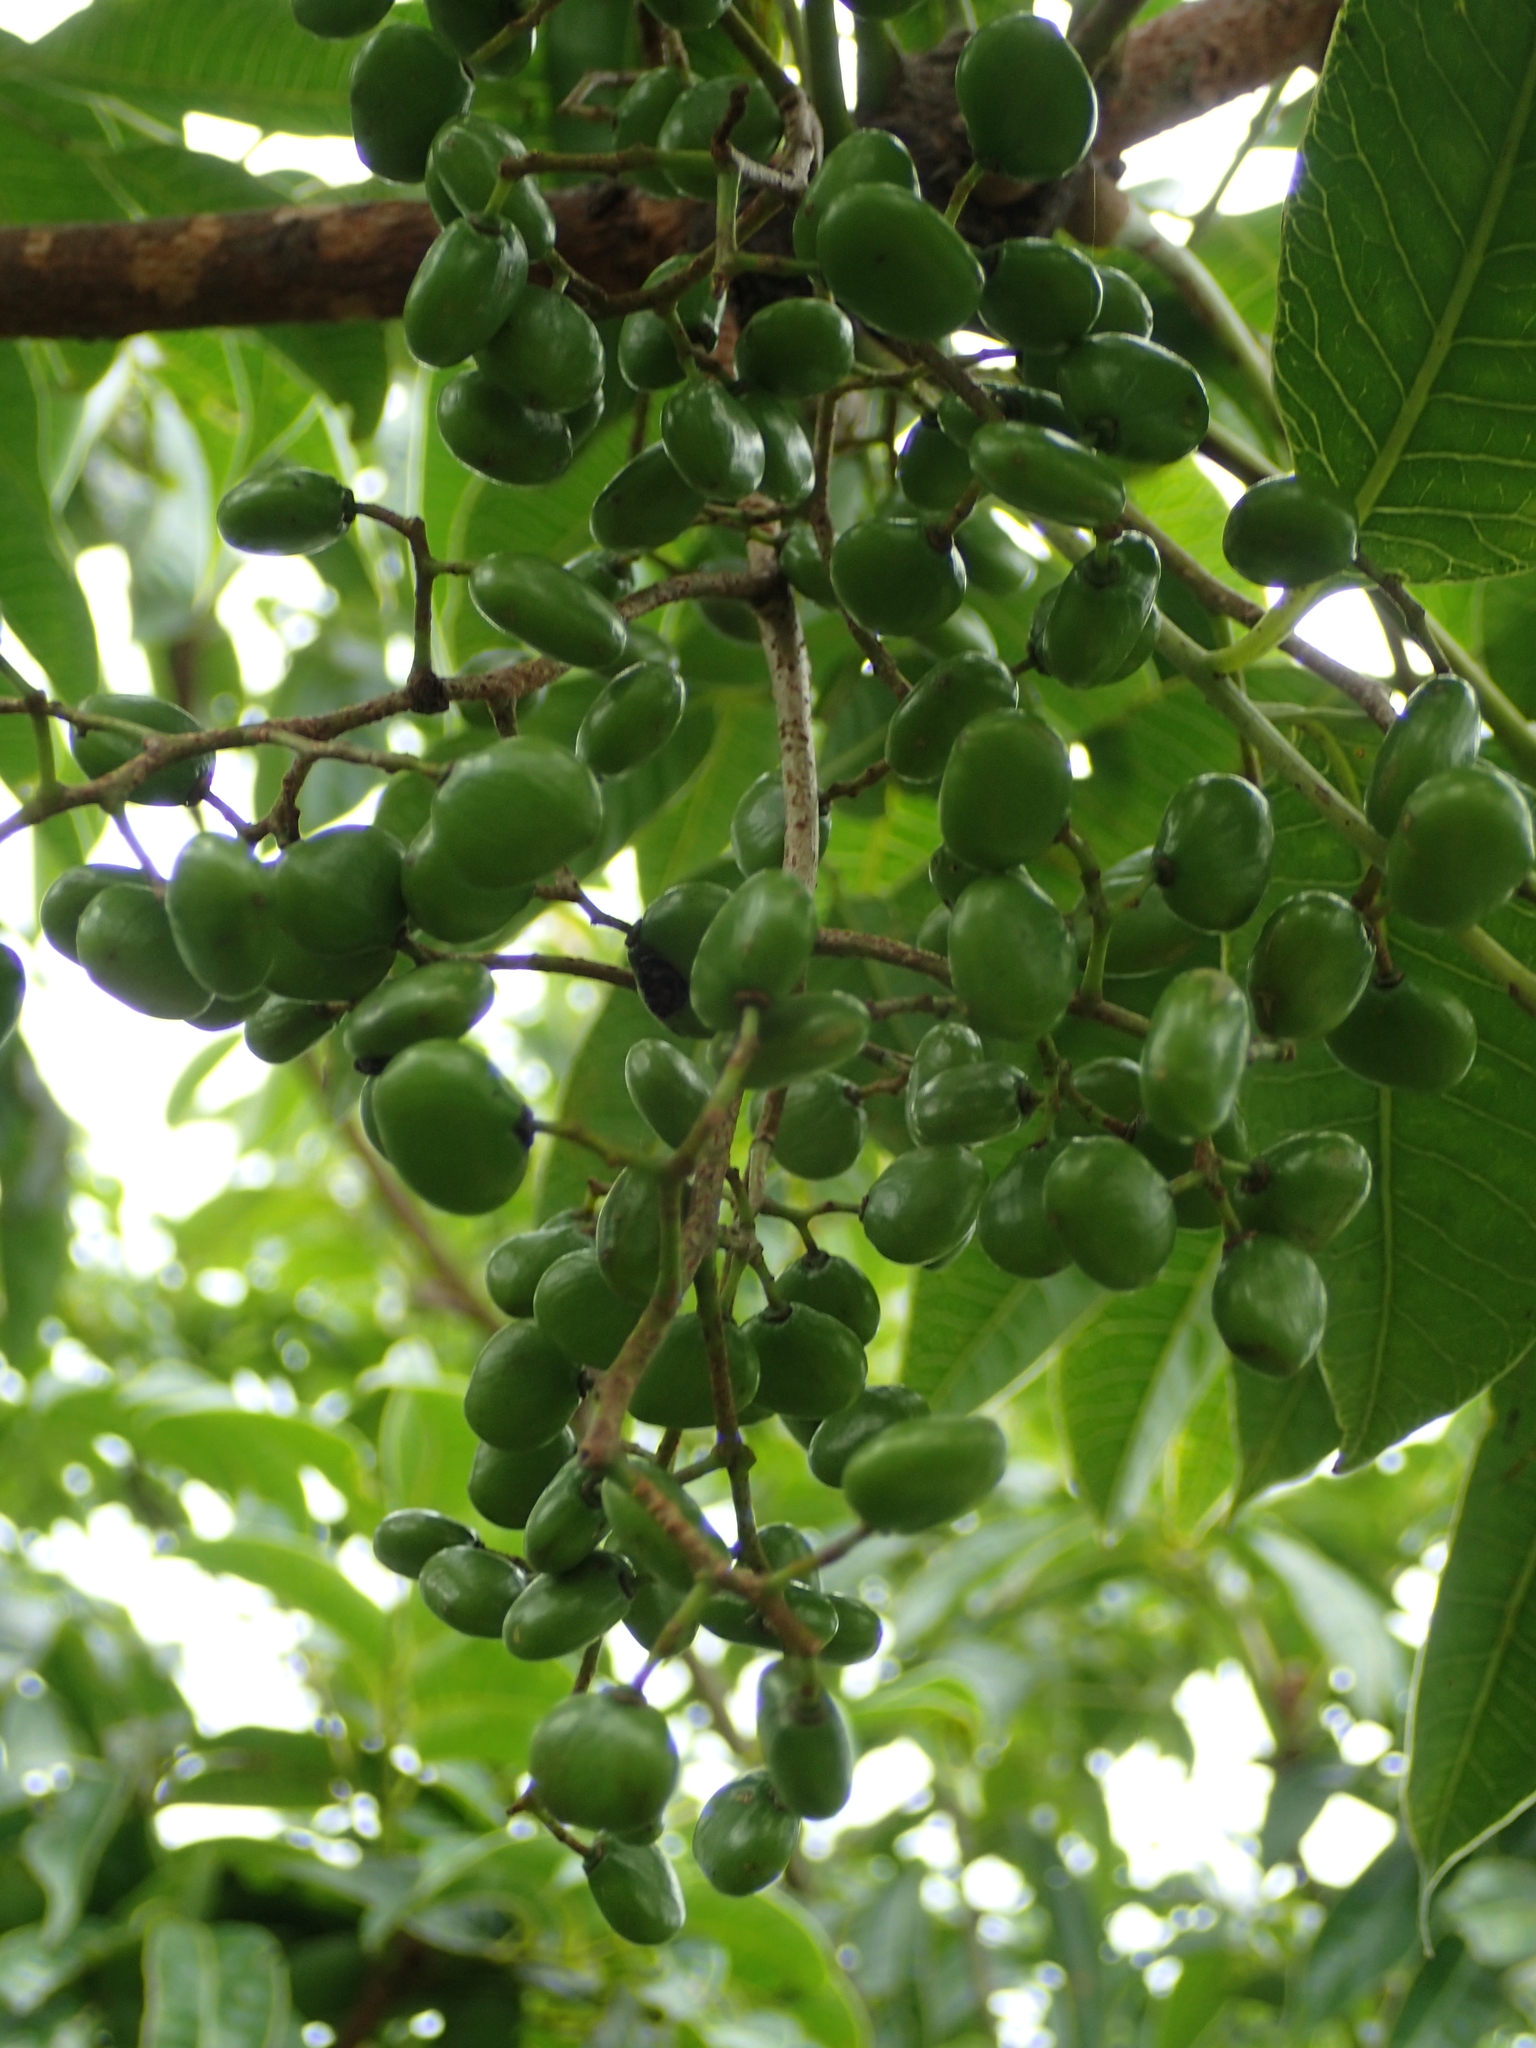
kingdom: Plantae
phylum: Tracheophyta
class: Magnoliopsida
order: Sapindales
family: Rutaceae
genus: Tetradium
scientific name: Tetradium glabrifolium
